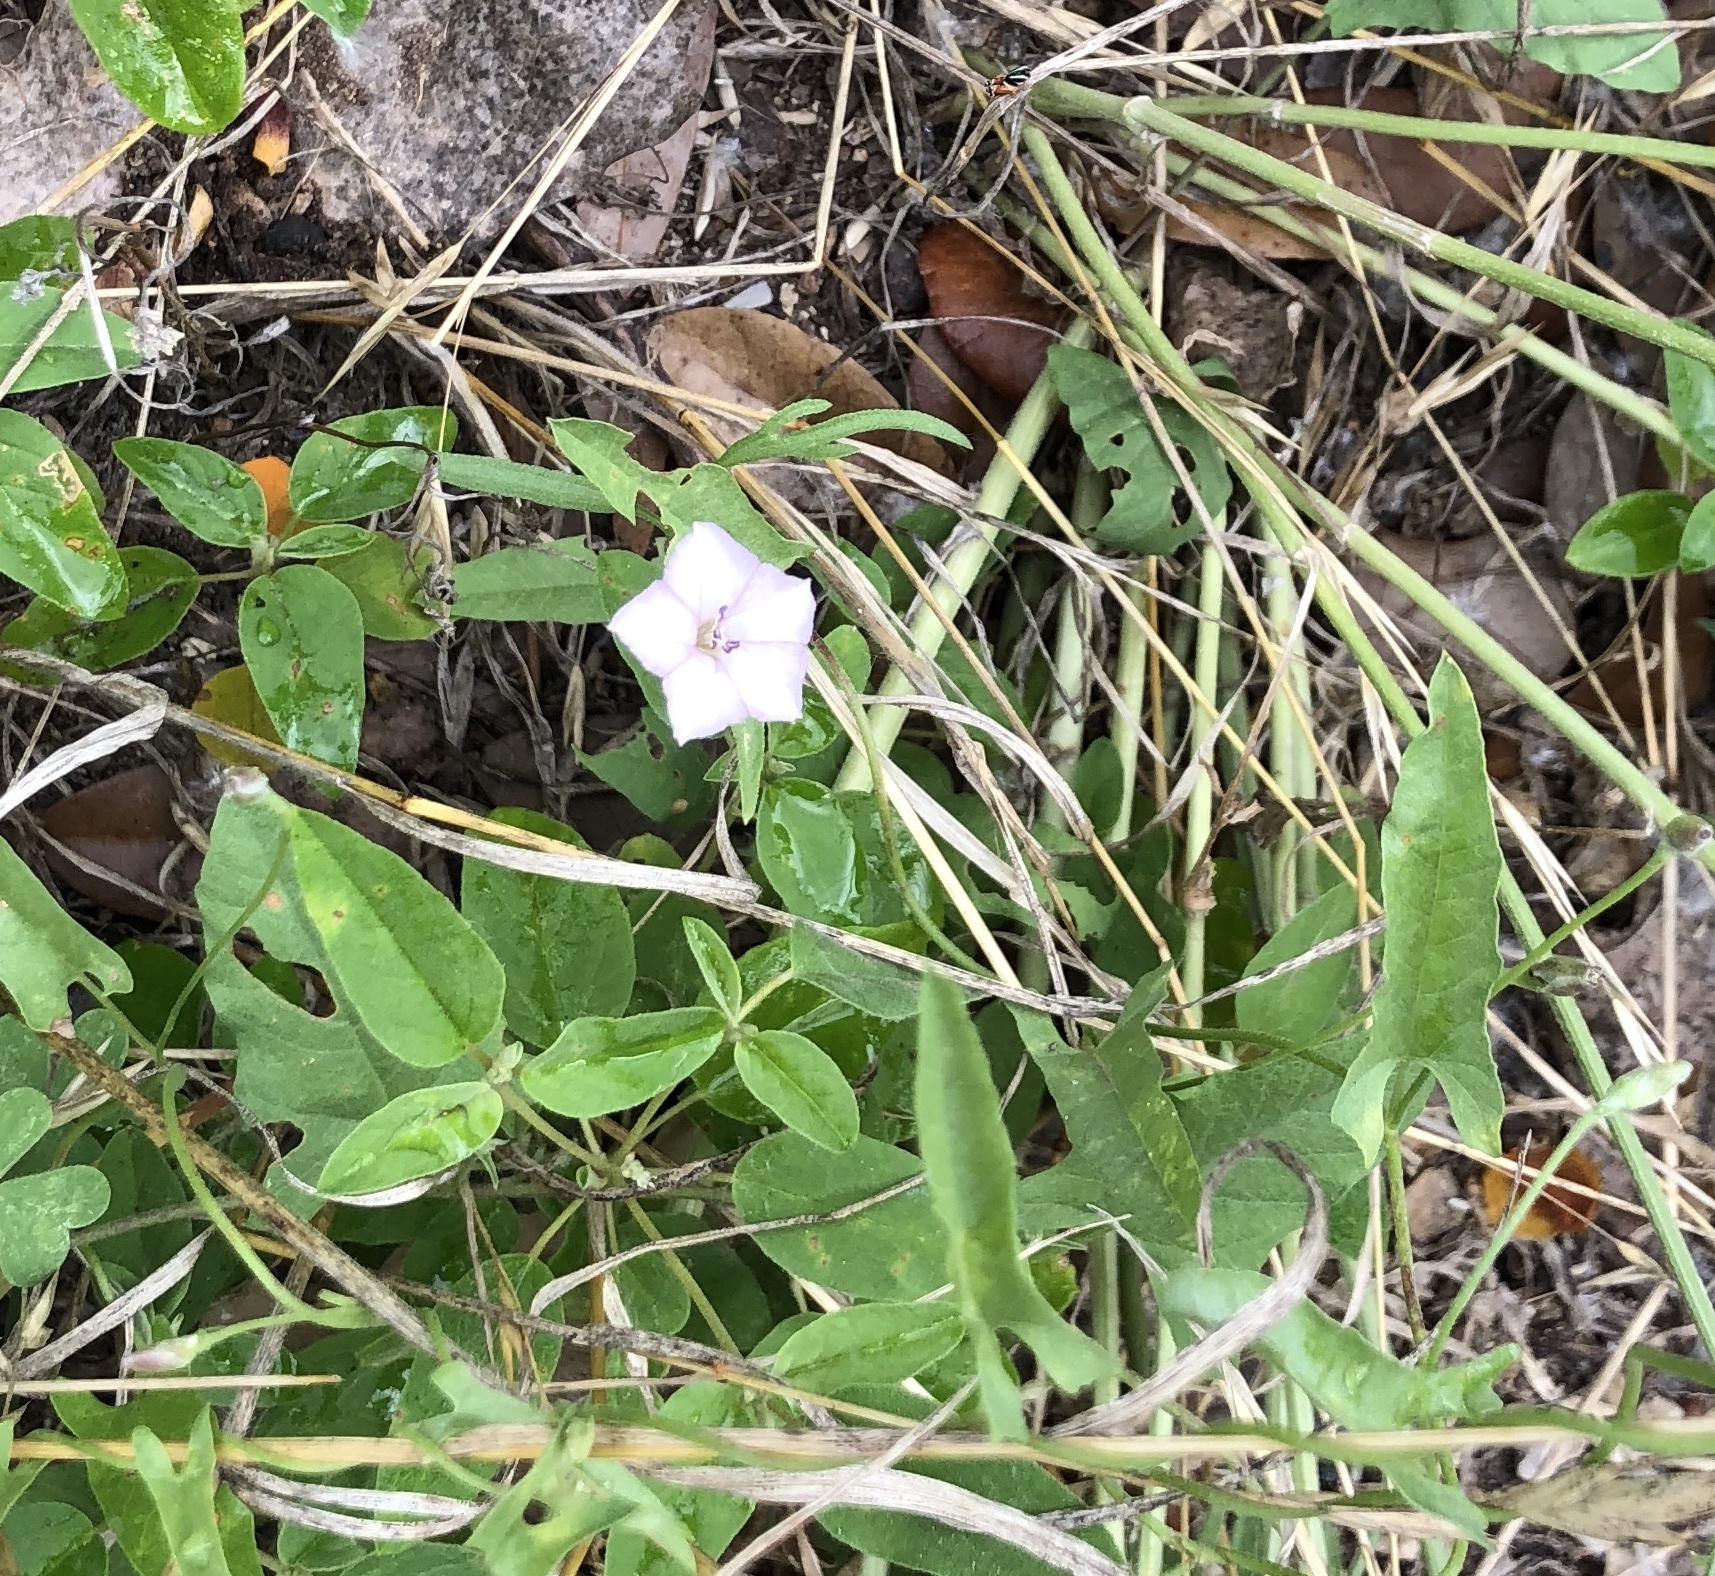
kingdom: Plantae
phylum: Tracheophyta
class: Magnoliopsida
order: Solanales
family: Convolvulaceae
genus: Convolvulus
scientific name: Convolvulus equitans
